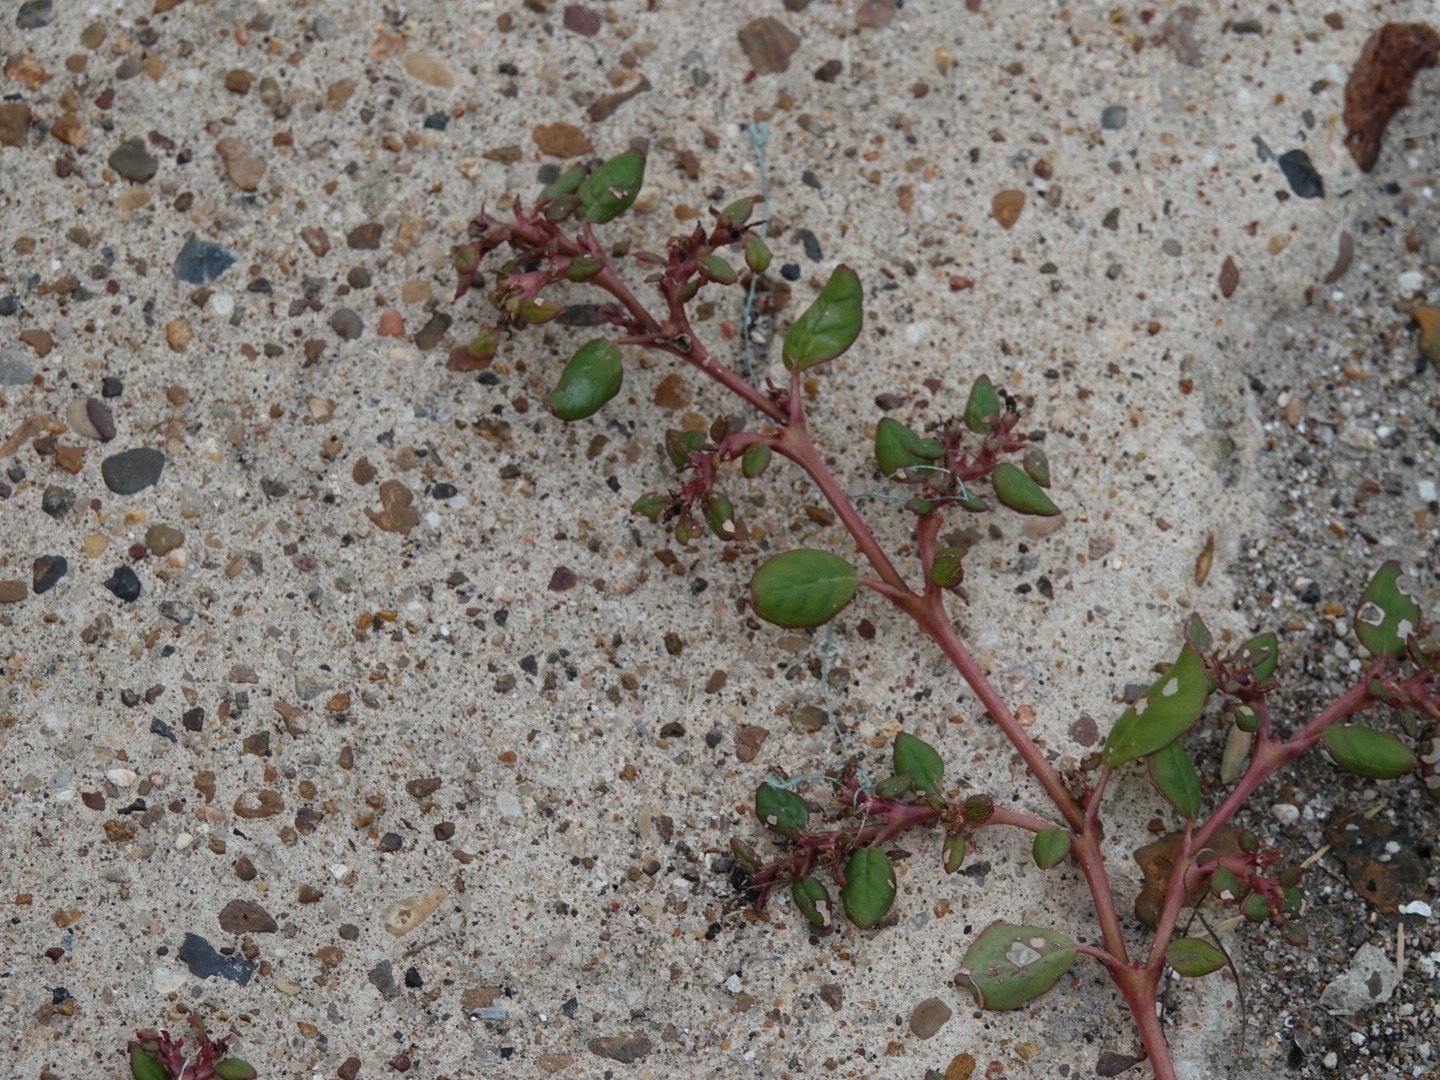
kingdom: Plantae
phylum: Tracheophyta
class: Magnoliopsida
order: Caryophyllales
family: Aizoaceae
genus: Trianthema
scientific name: Trianthema portulacastrum
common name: Desert horsepurslane
